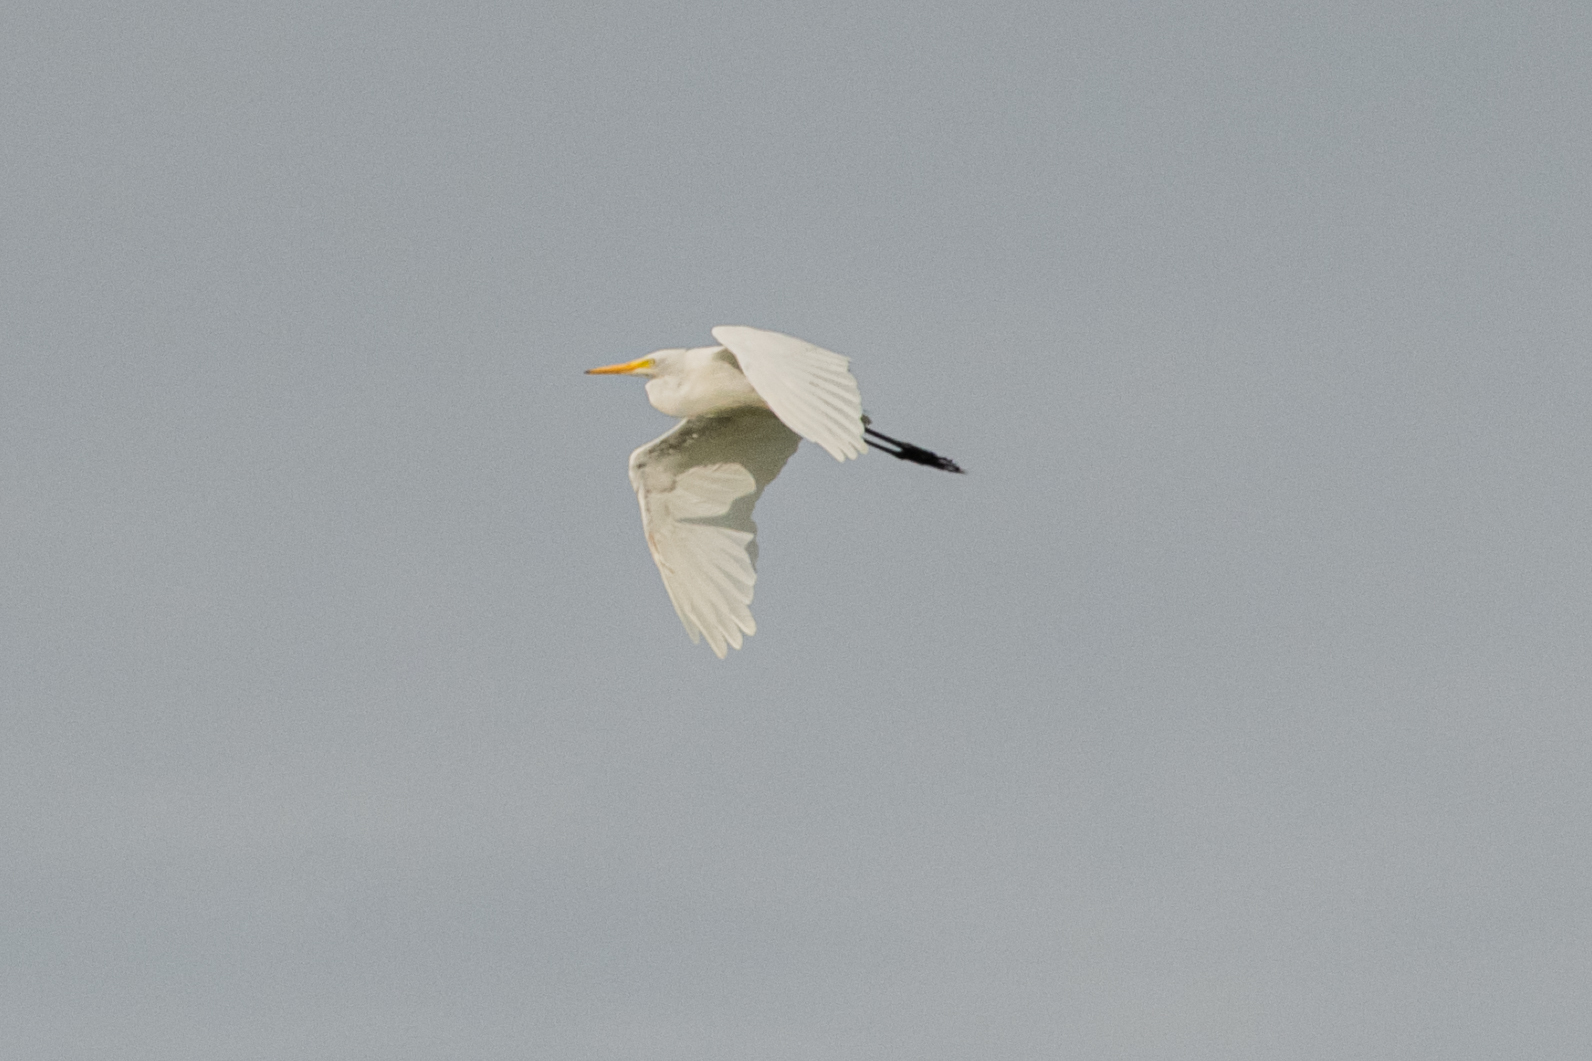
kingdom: Animalia
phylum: Chordata
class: Aves
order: Pelecaniformes
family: Ardeidae
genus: Ardea
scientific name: Ardea alba
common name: Great egret
